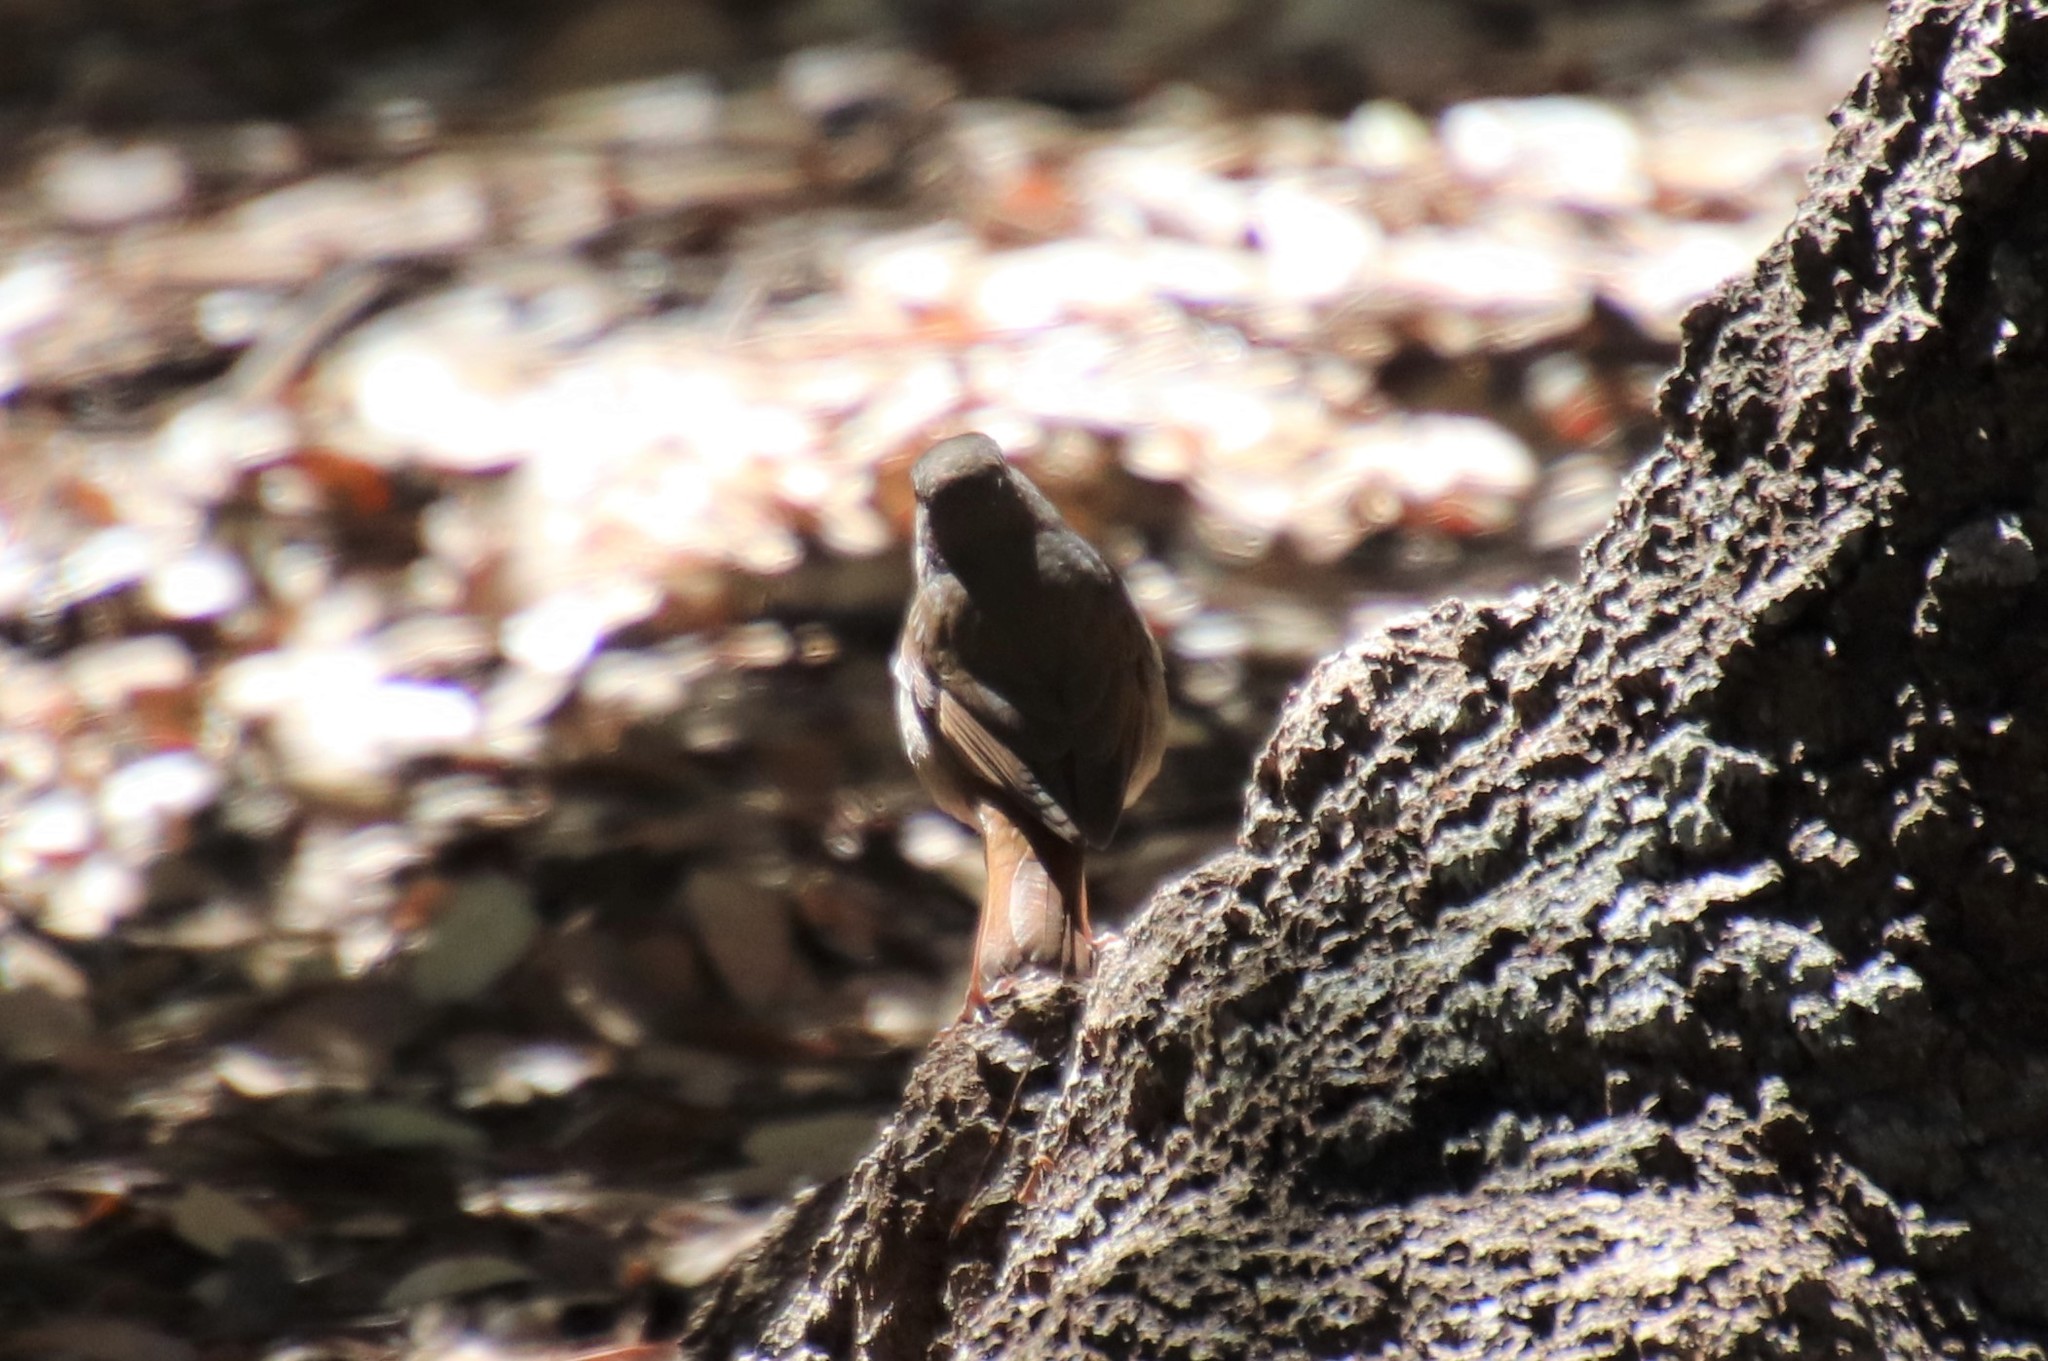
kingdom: Animalia
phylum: Chordata
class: Aves
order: Passeriformes
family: Turdidae
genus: Catharus
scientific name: Catharus guttatus
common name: Hermit thrush
